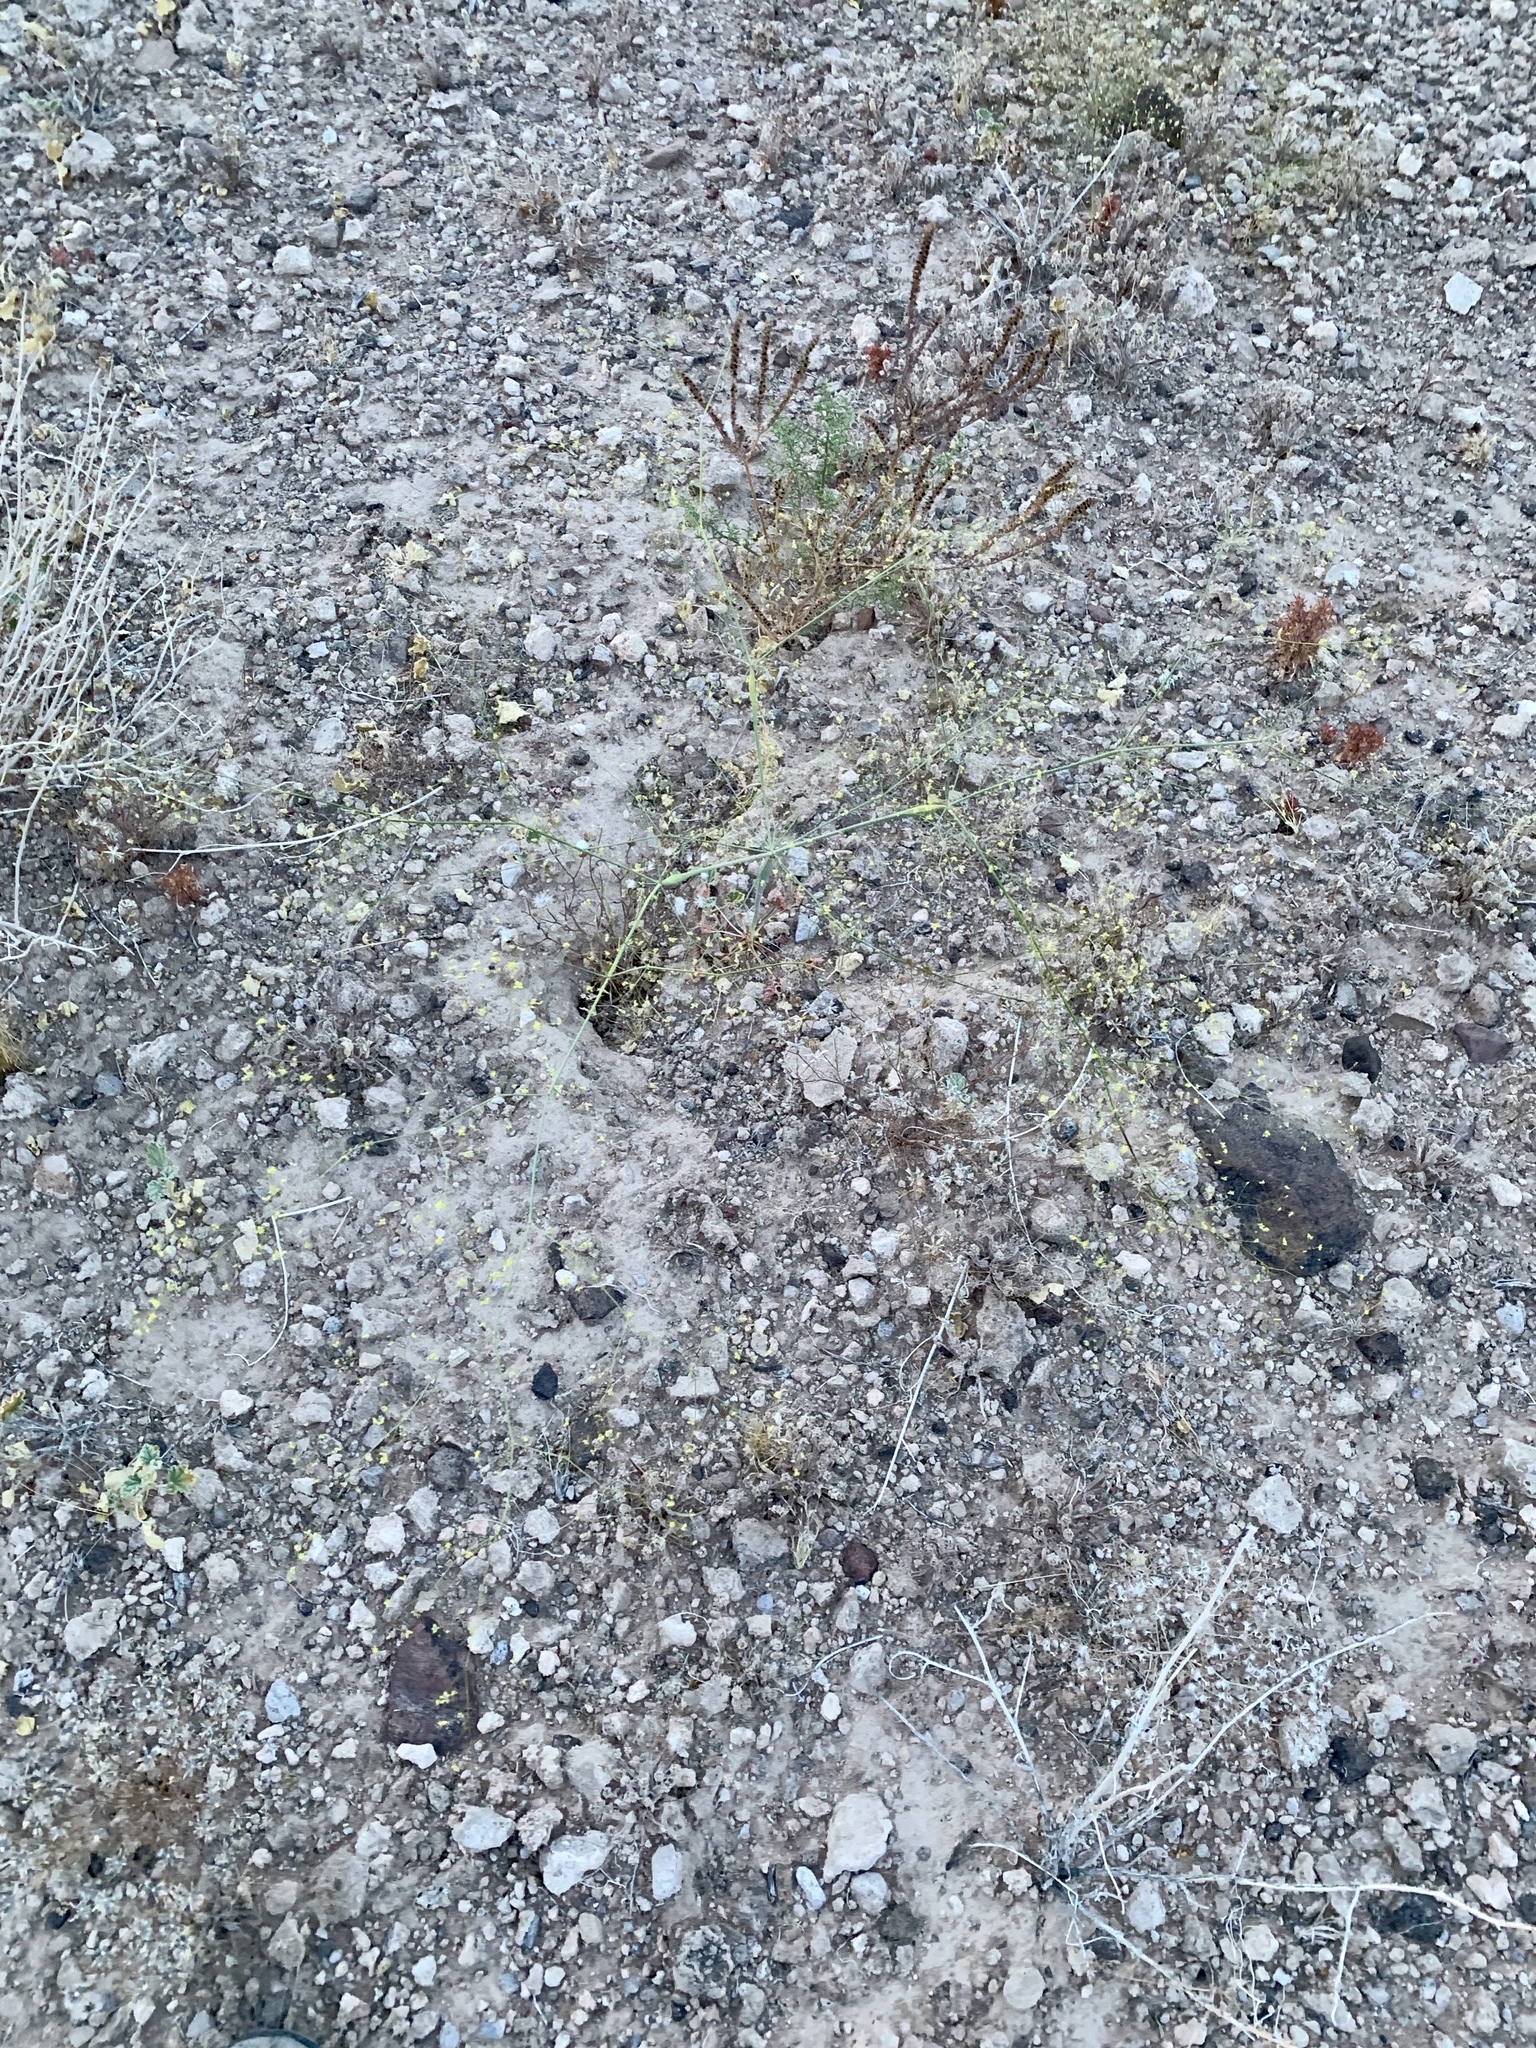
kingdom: Plantae
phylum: Tracheophyta
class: Magnoliopsida
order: Caryophyllales
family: Polygonaceae
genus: Eriogonum
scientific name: Eriogonum inflatum
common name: Desert trumpet
